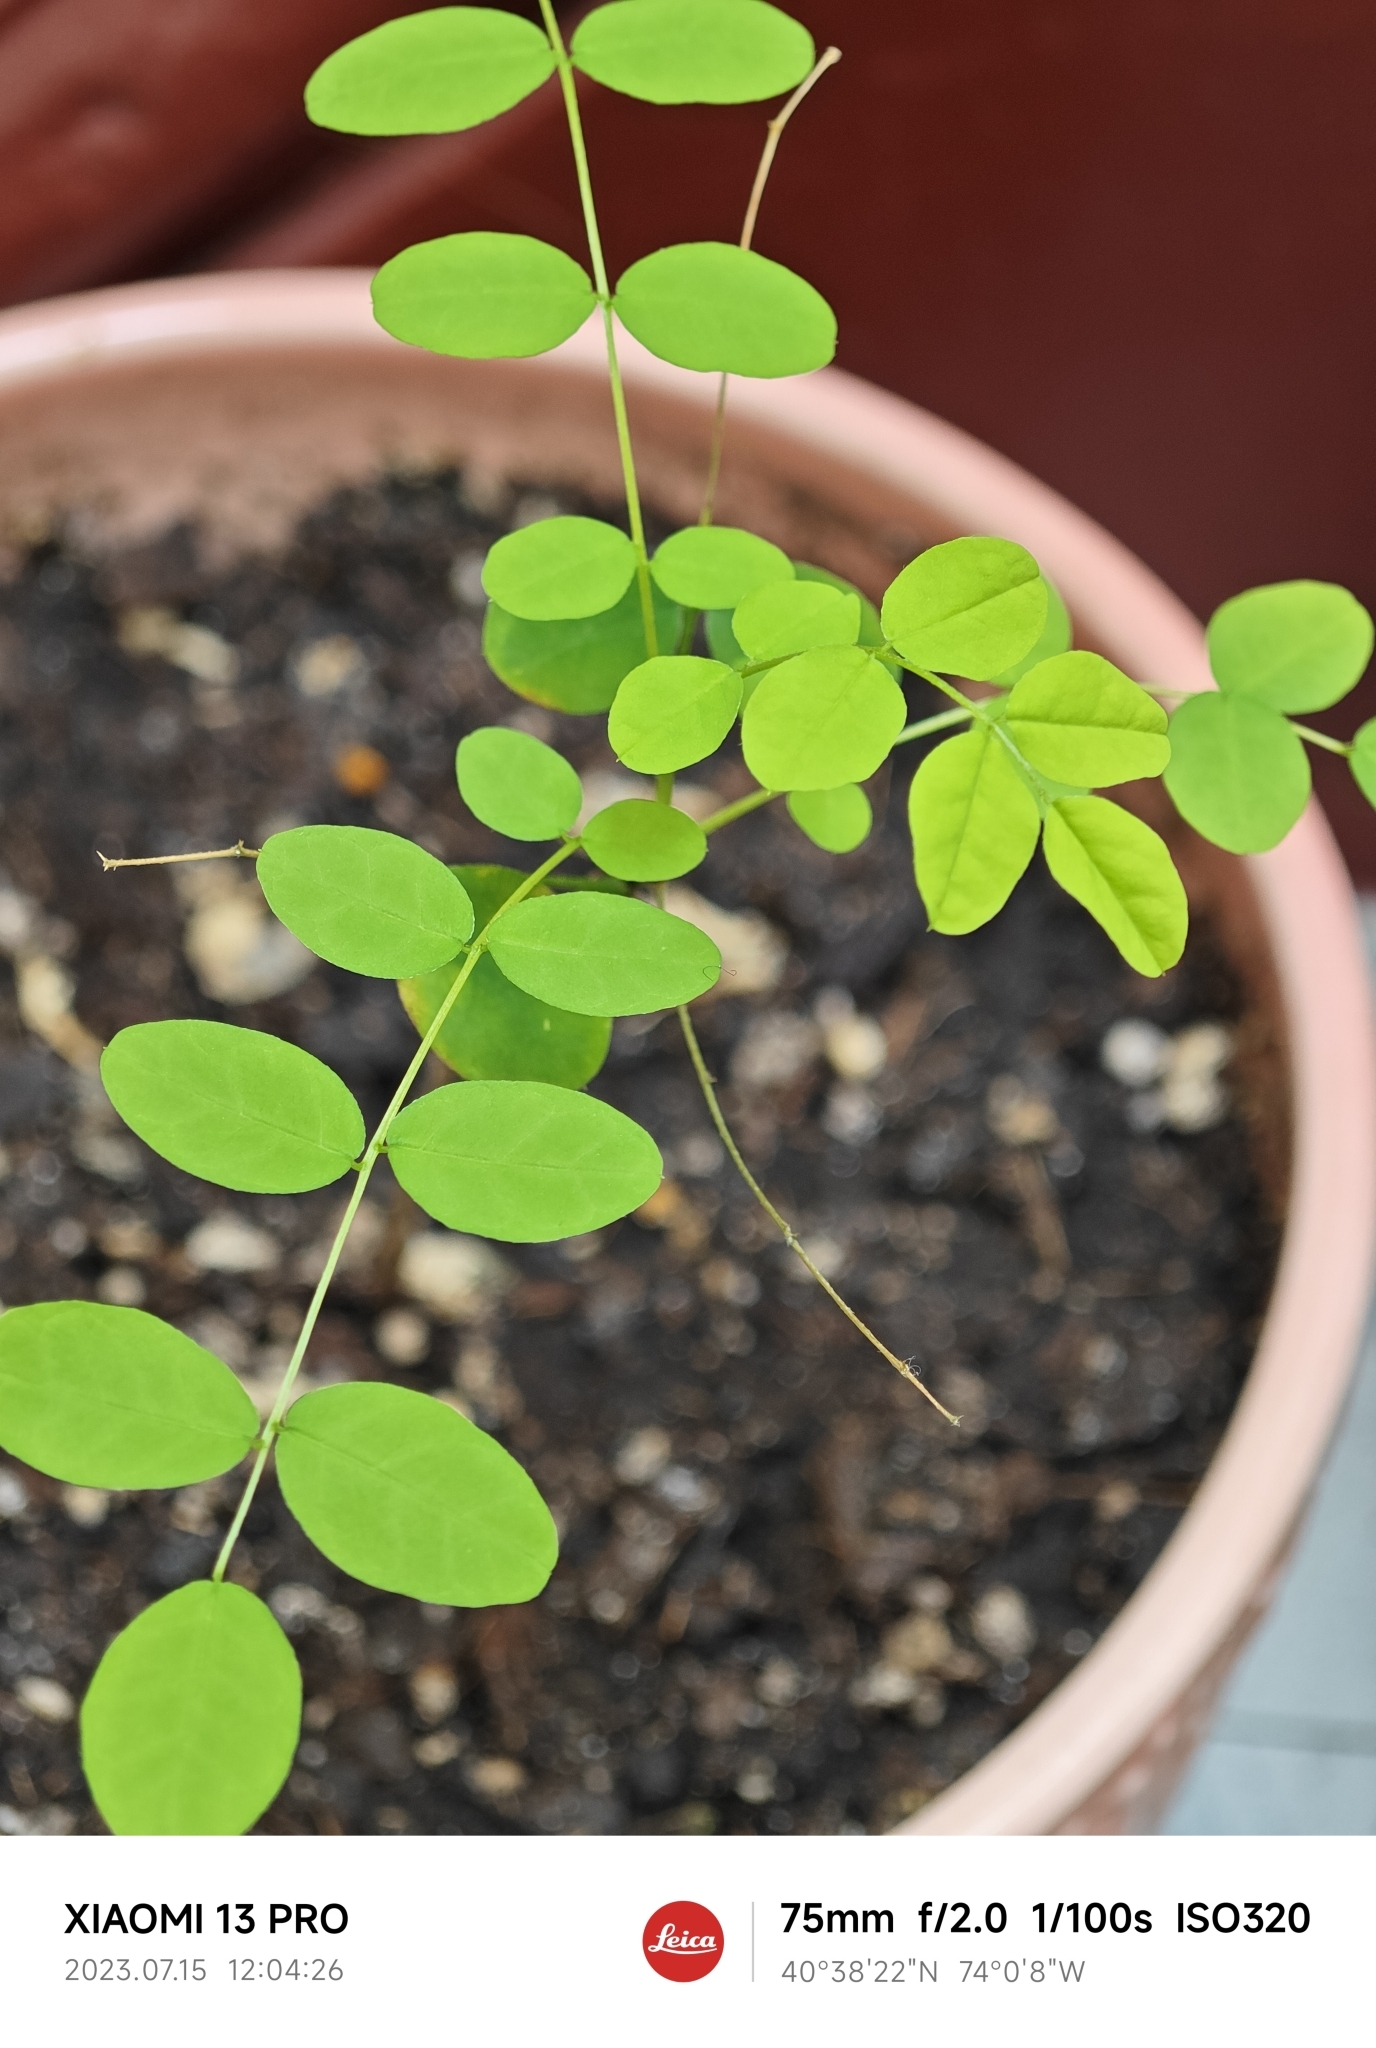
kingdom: Plantae
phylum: Tracheophyta
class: Magnoliopsida
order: Fabales
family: Fabaceae
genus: Robinia
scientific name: Robinia pseudoacacia
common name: Black locust
